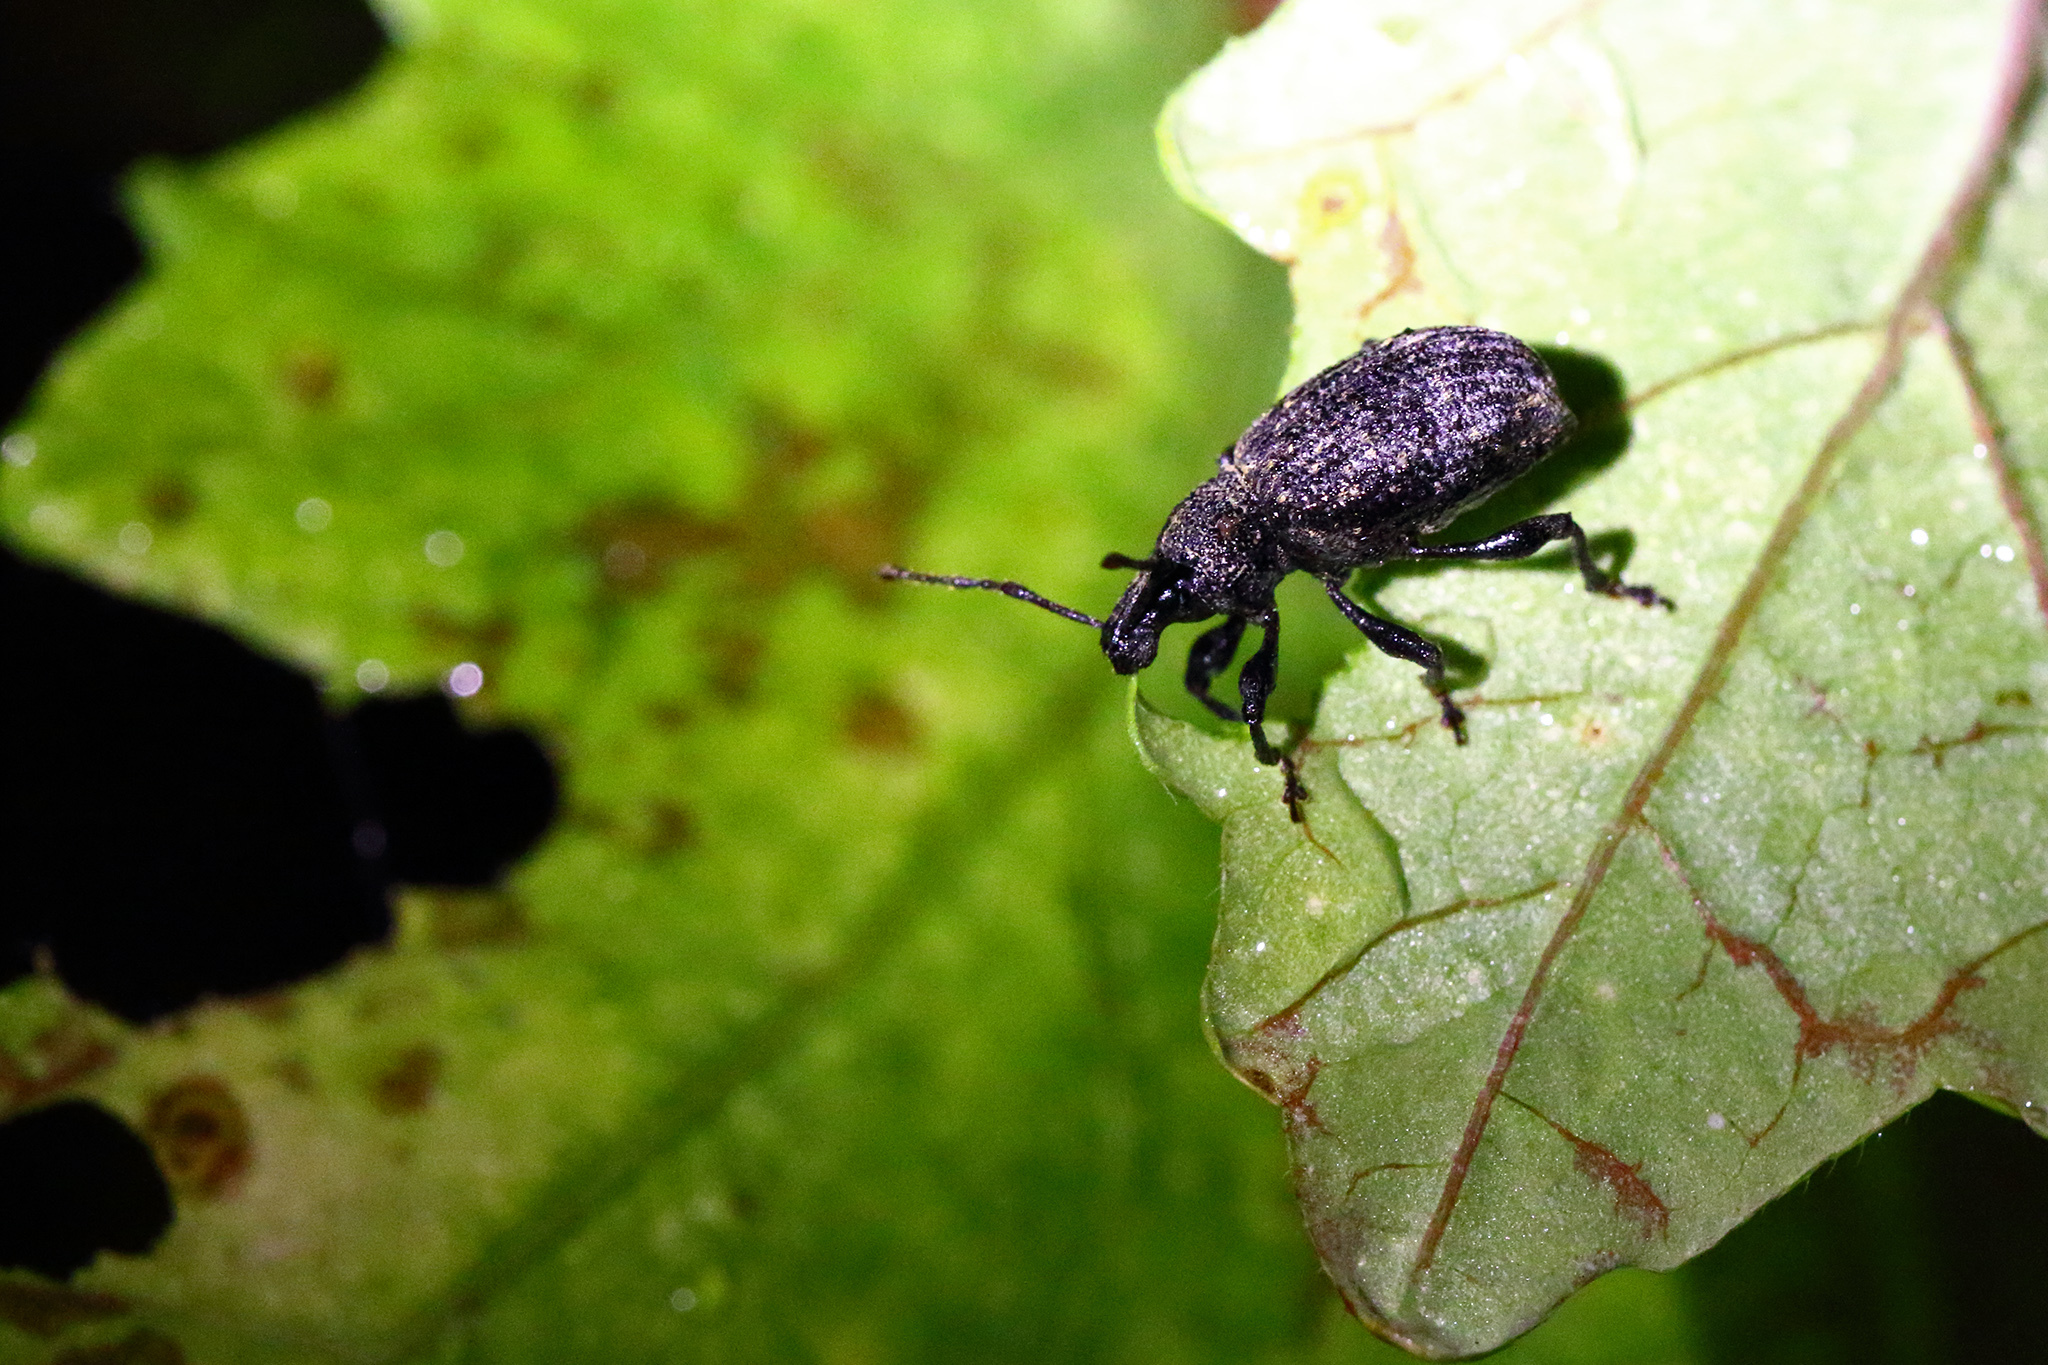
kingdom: Animalia
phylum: Arthropoda
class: Insecta
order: Coleoptera
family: Curculionidae
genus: Otiorhynchus
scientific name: Otiorhynchus sulcatus
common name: Black vine weevil
